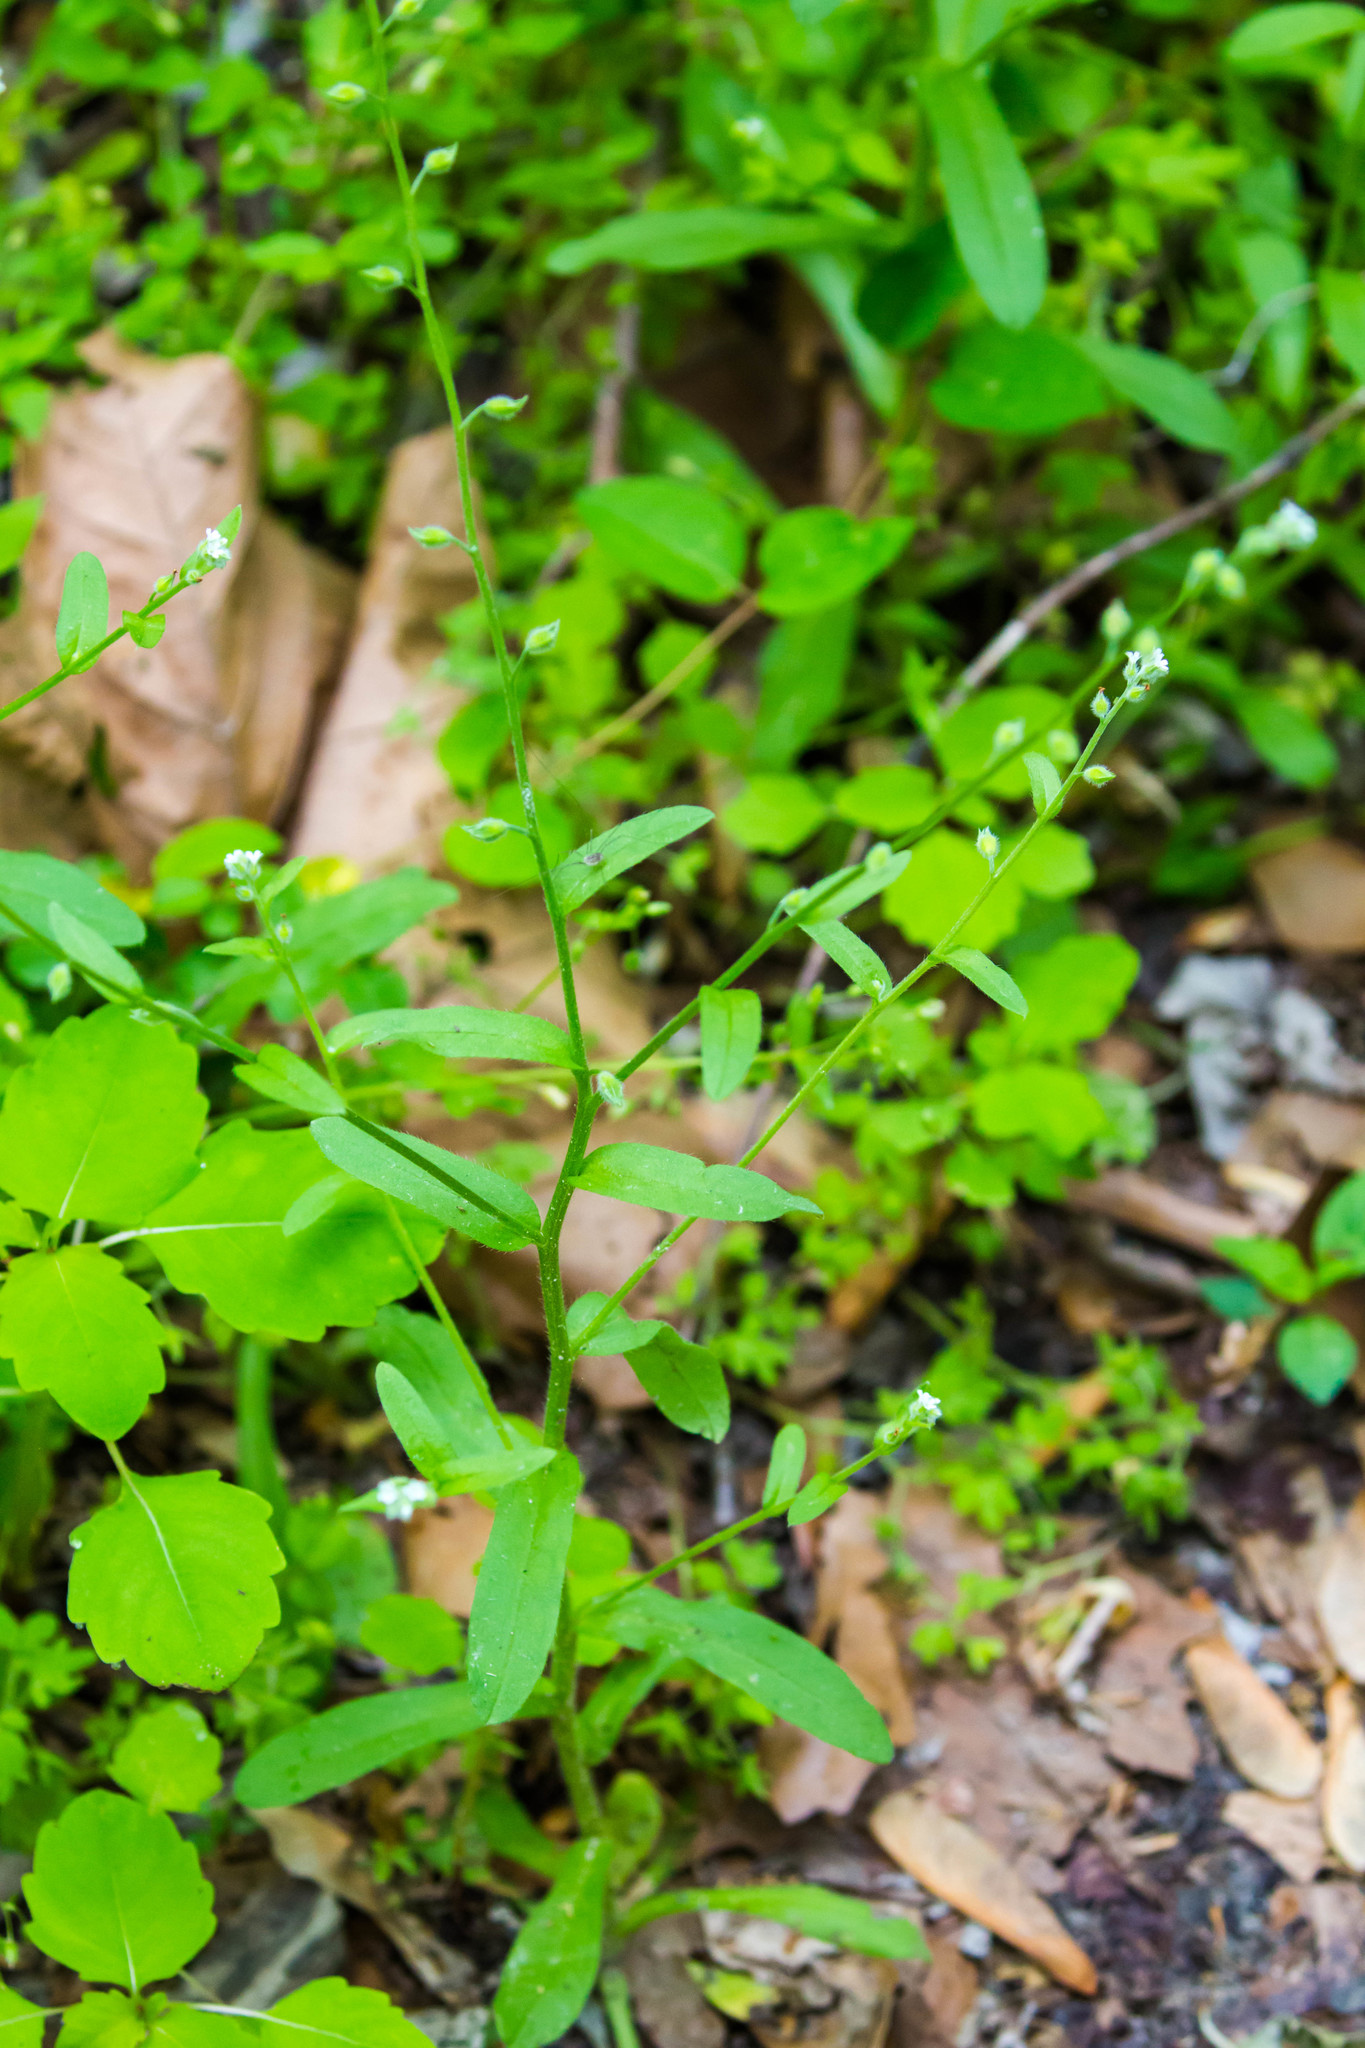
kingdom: Plantae
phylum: Tracheophyta
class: Magnoliopsida
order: Boraginales
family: Boraginaceae
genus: Myosotis
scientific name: Myosotis macrosperma
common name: Large-seed forget-me-not
